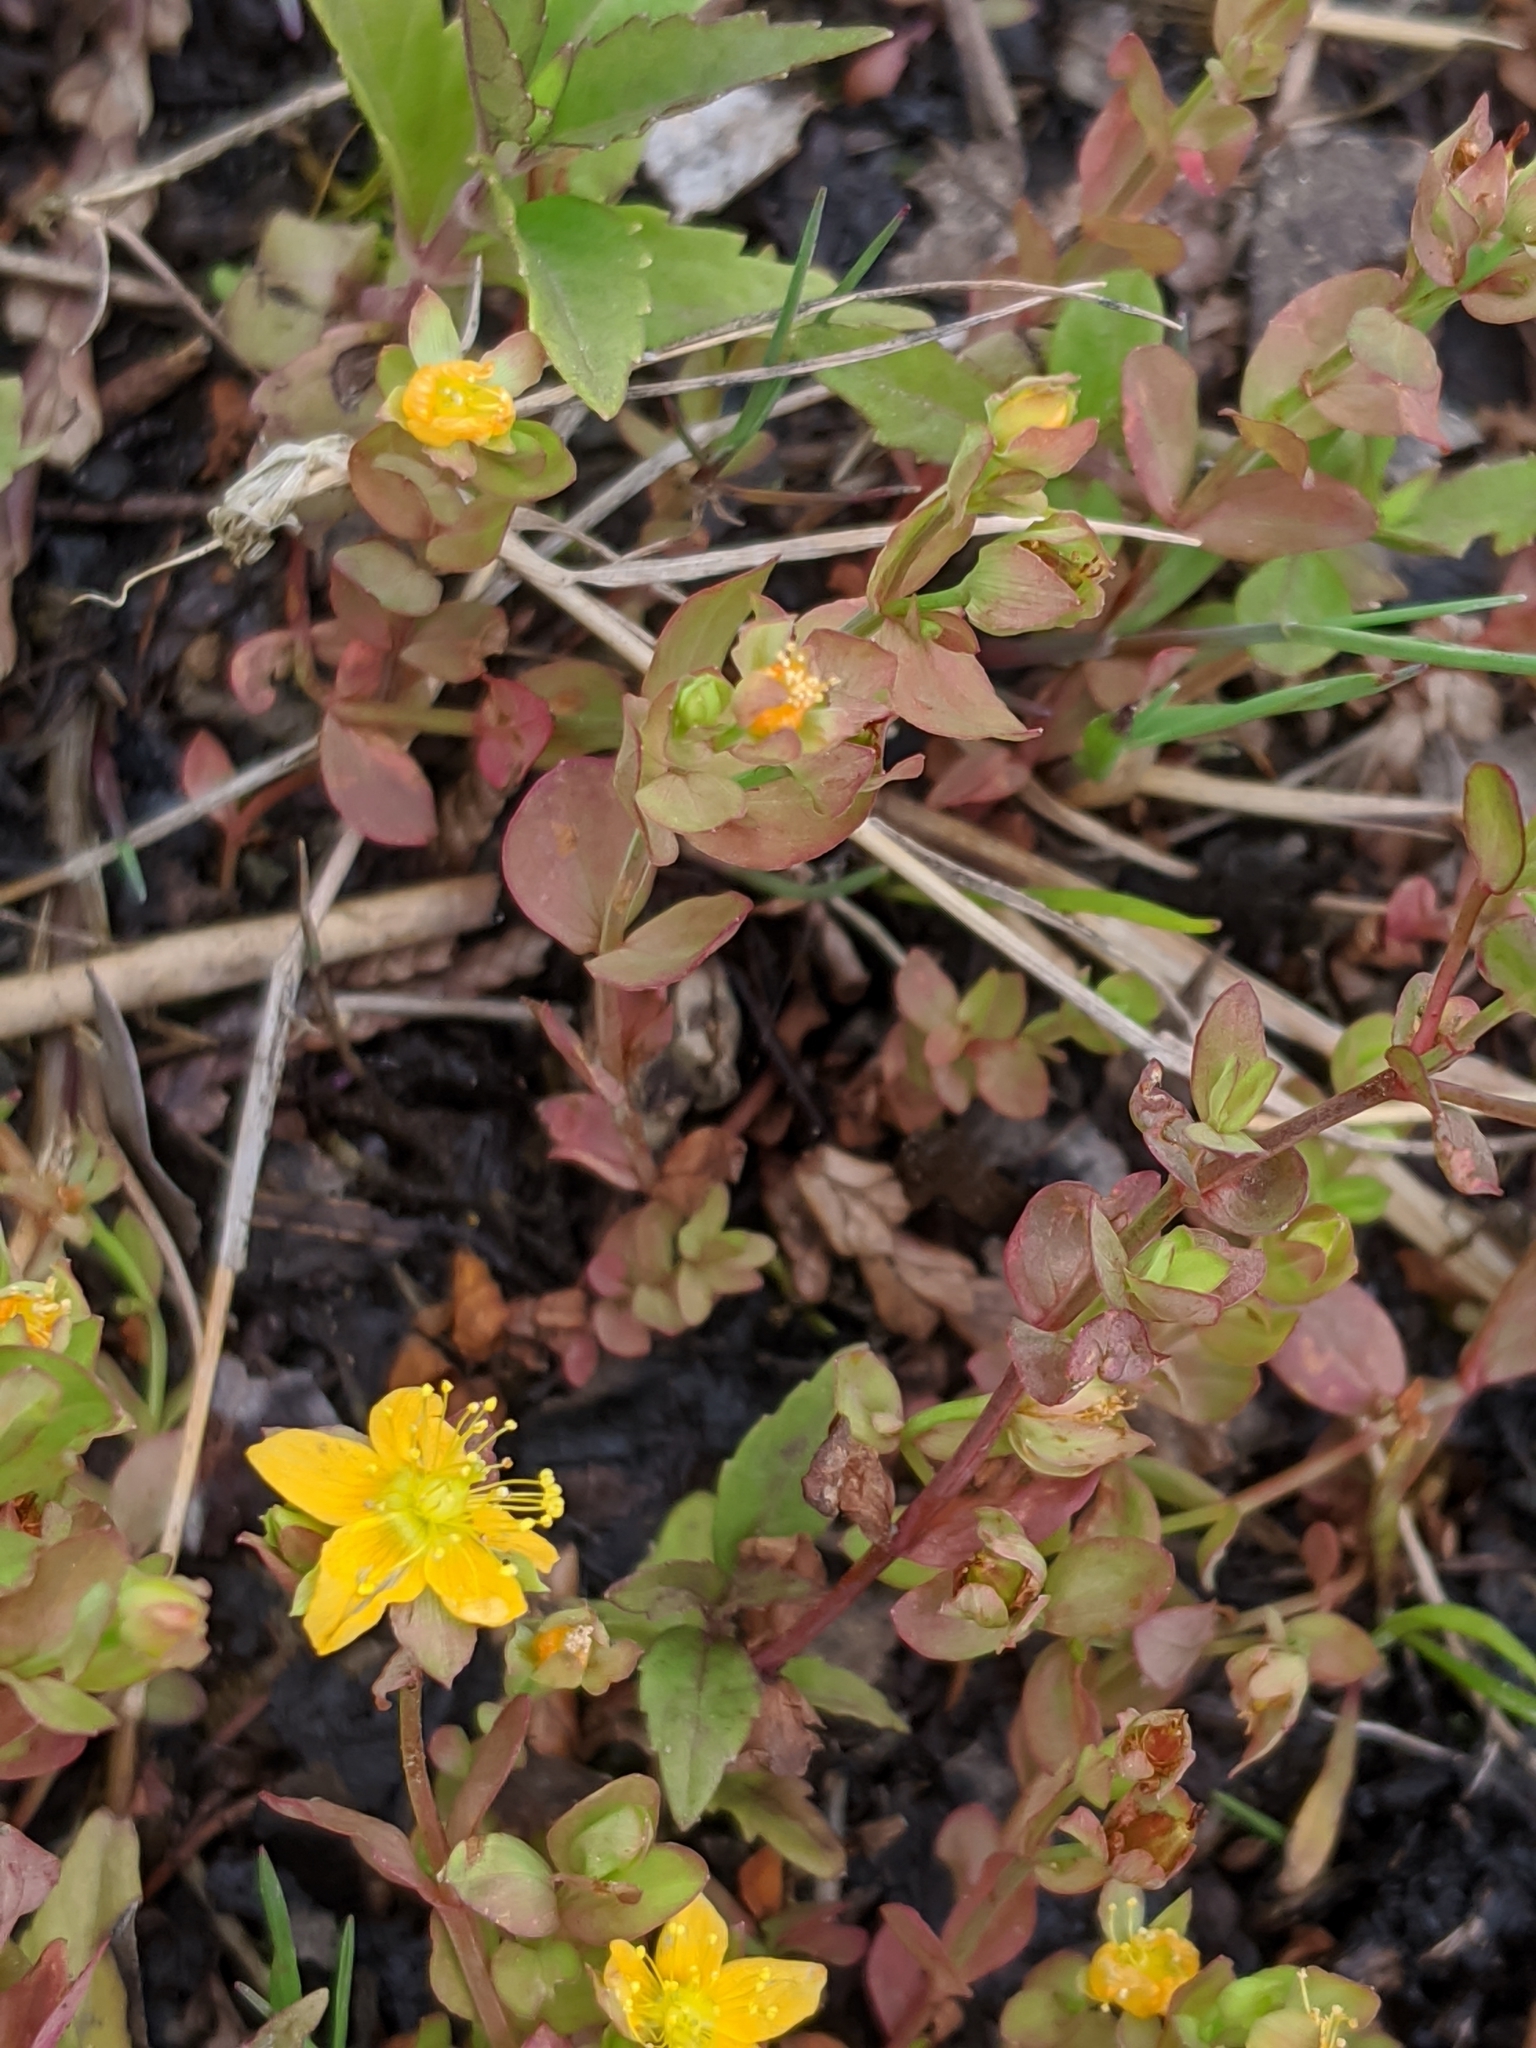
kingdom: Plantae
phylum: Tracheophyta
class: Magnoliopsida
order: Malpighiales
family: Hypericaceae
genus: Hypericum
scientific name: Hypericum anagalloides
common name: Bog st. john's-wort
